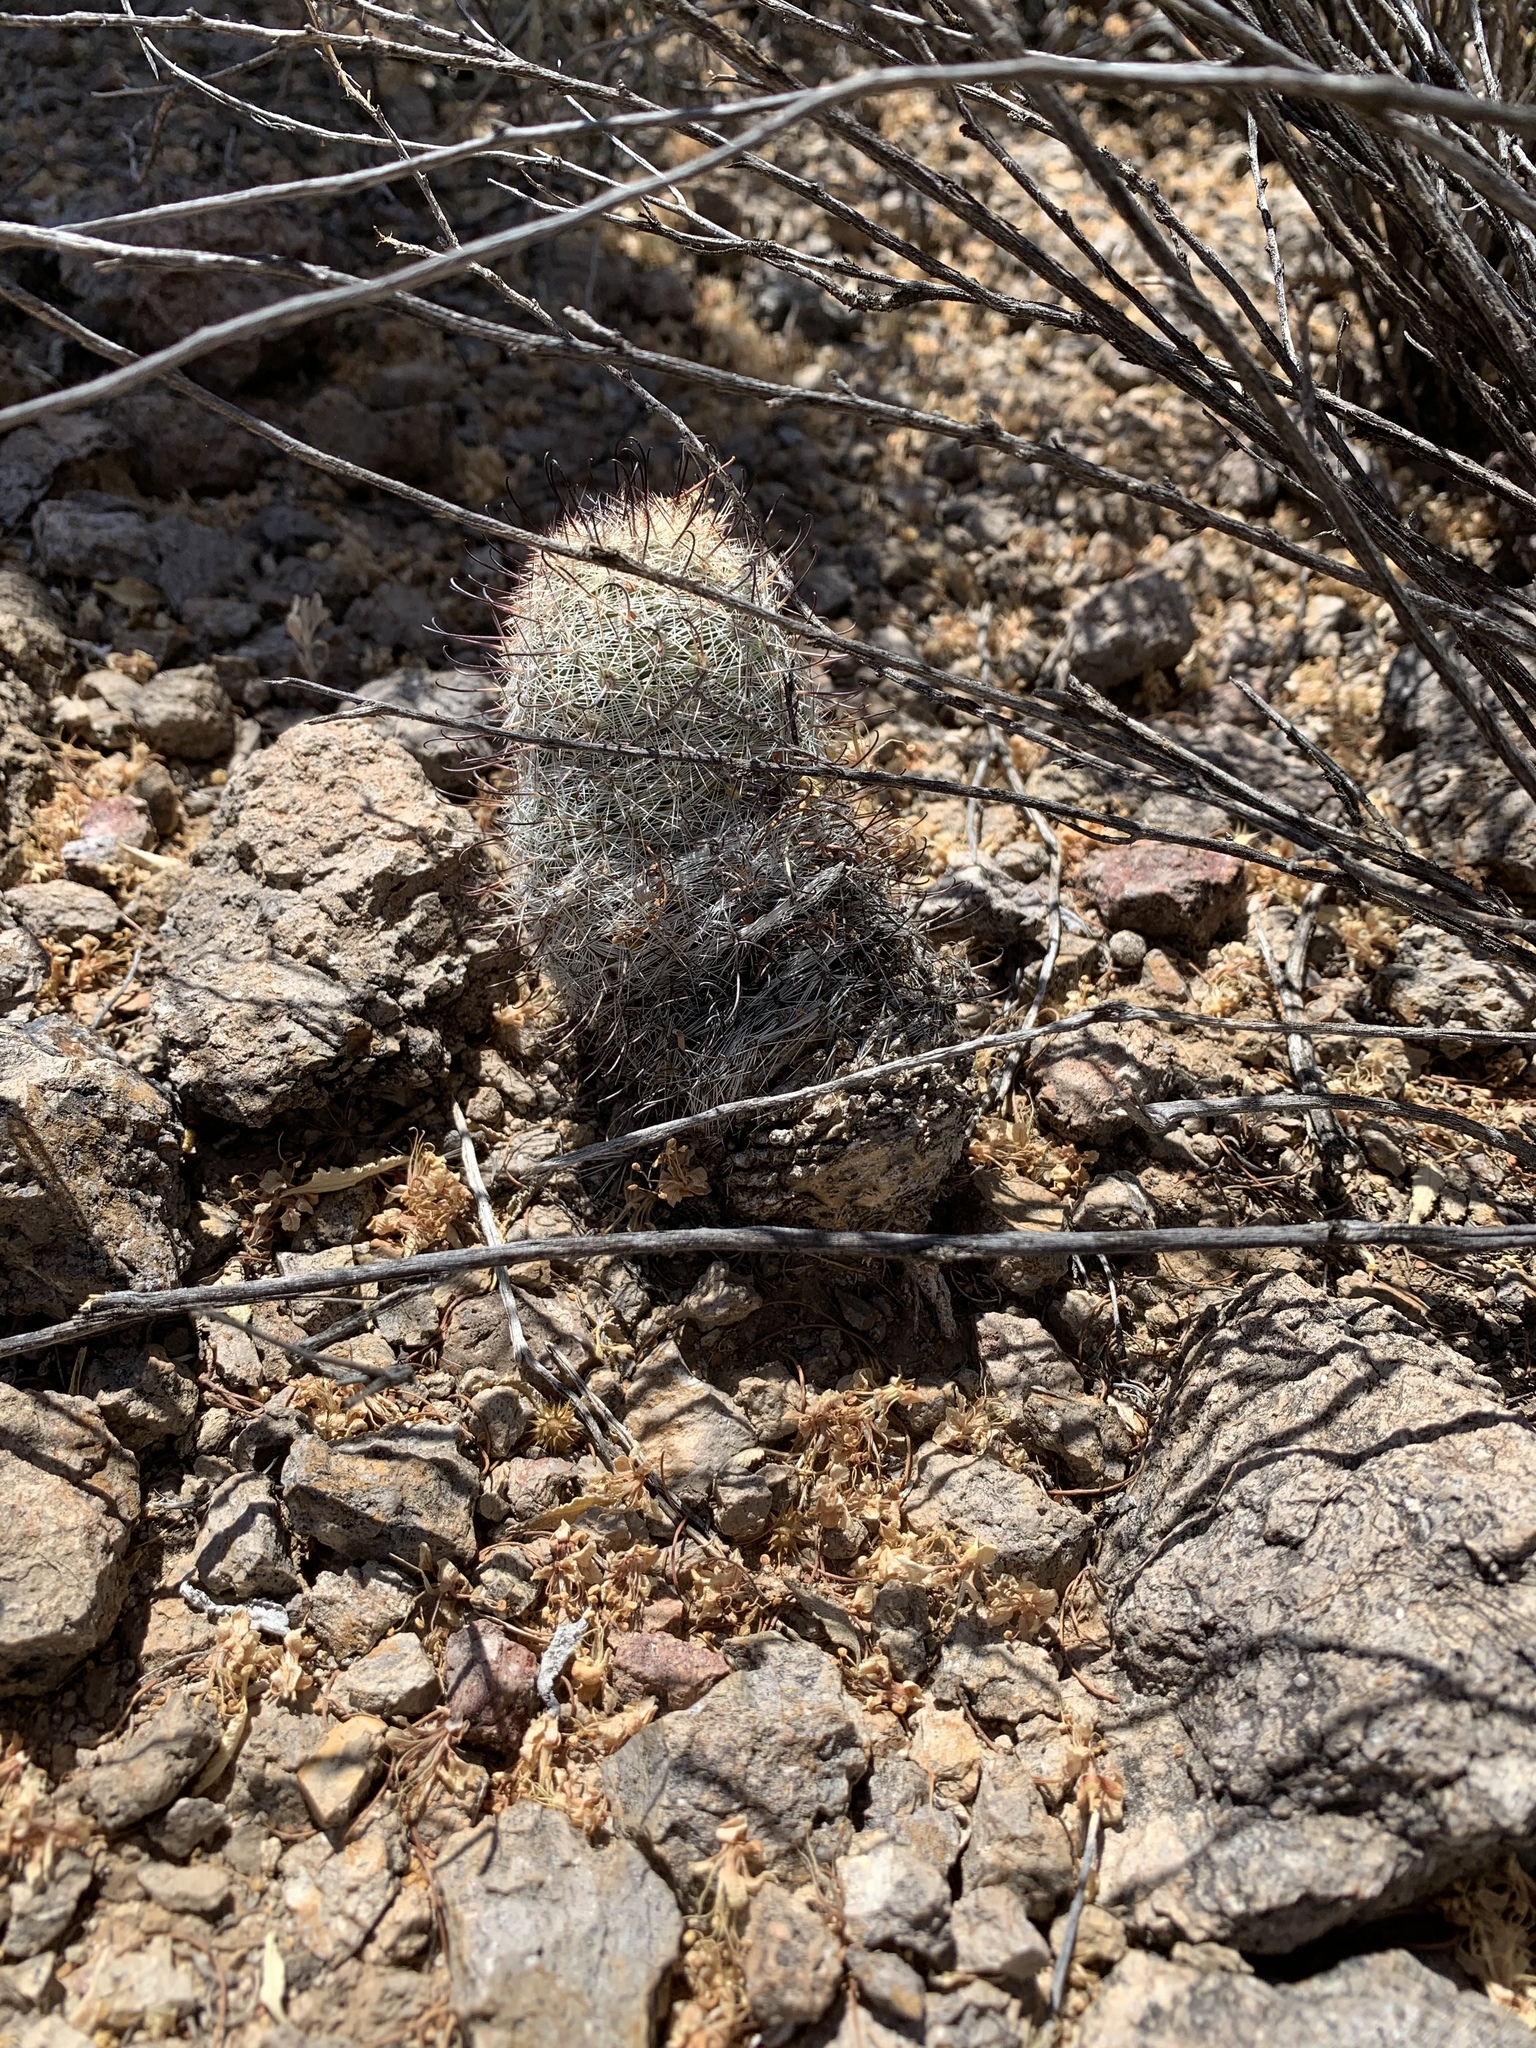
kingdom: Plantae
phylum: Tracheophyta
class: Magnoliopsida
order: Caryophyllales
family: Cactaceae
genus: Cochemiea
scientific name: Cochemiea grahamii
